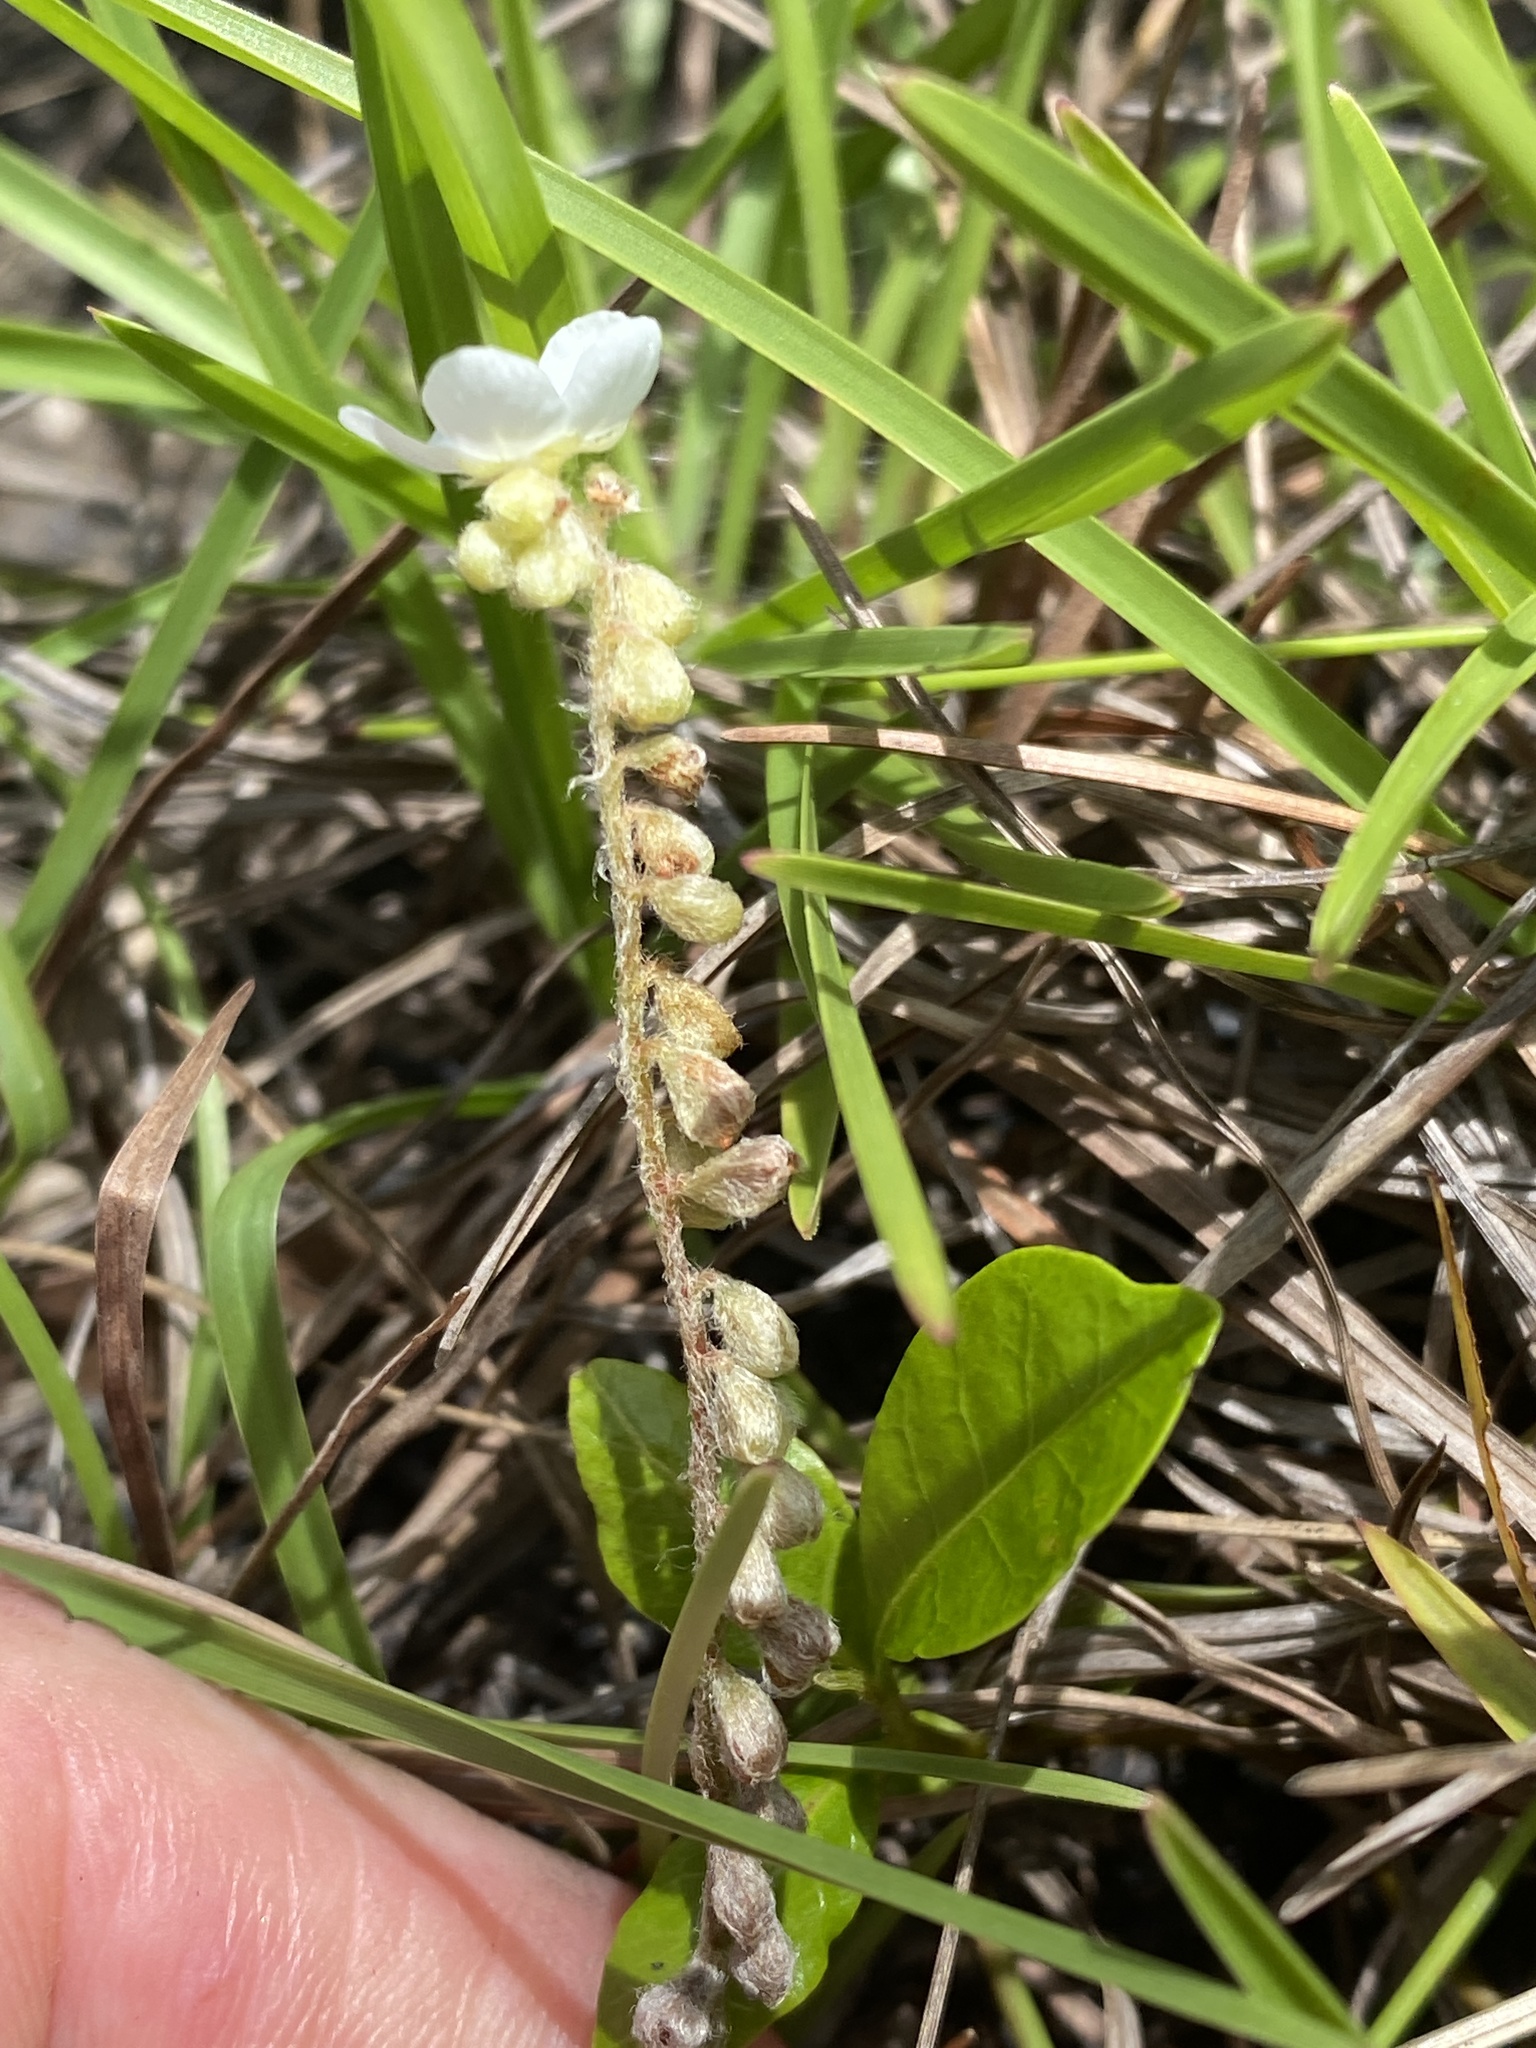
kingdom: Plantae
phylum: Tracheophyta
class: Magnoliopsida
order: Caryophyllales
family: Droseraceae
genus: Drosera
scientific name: Drosera petiolaris
